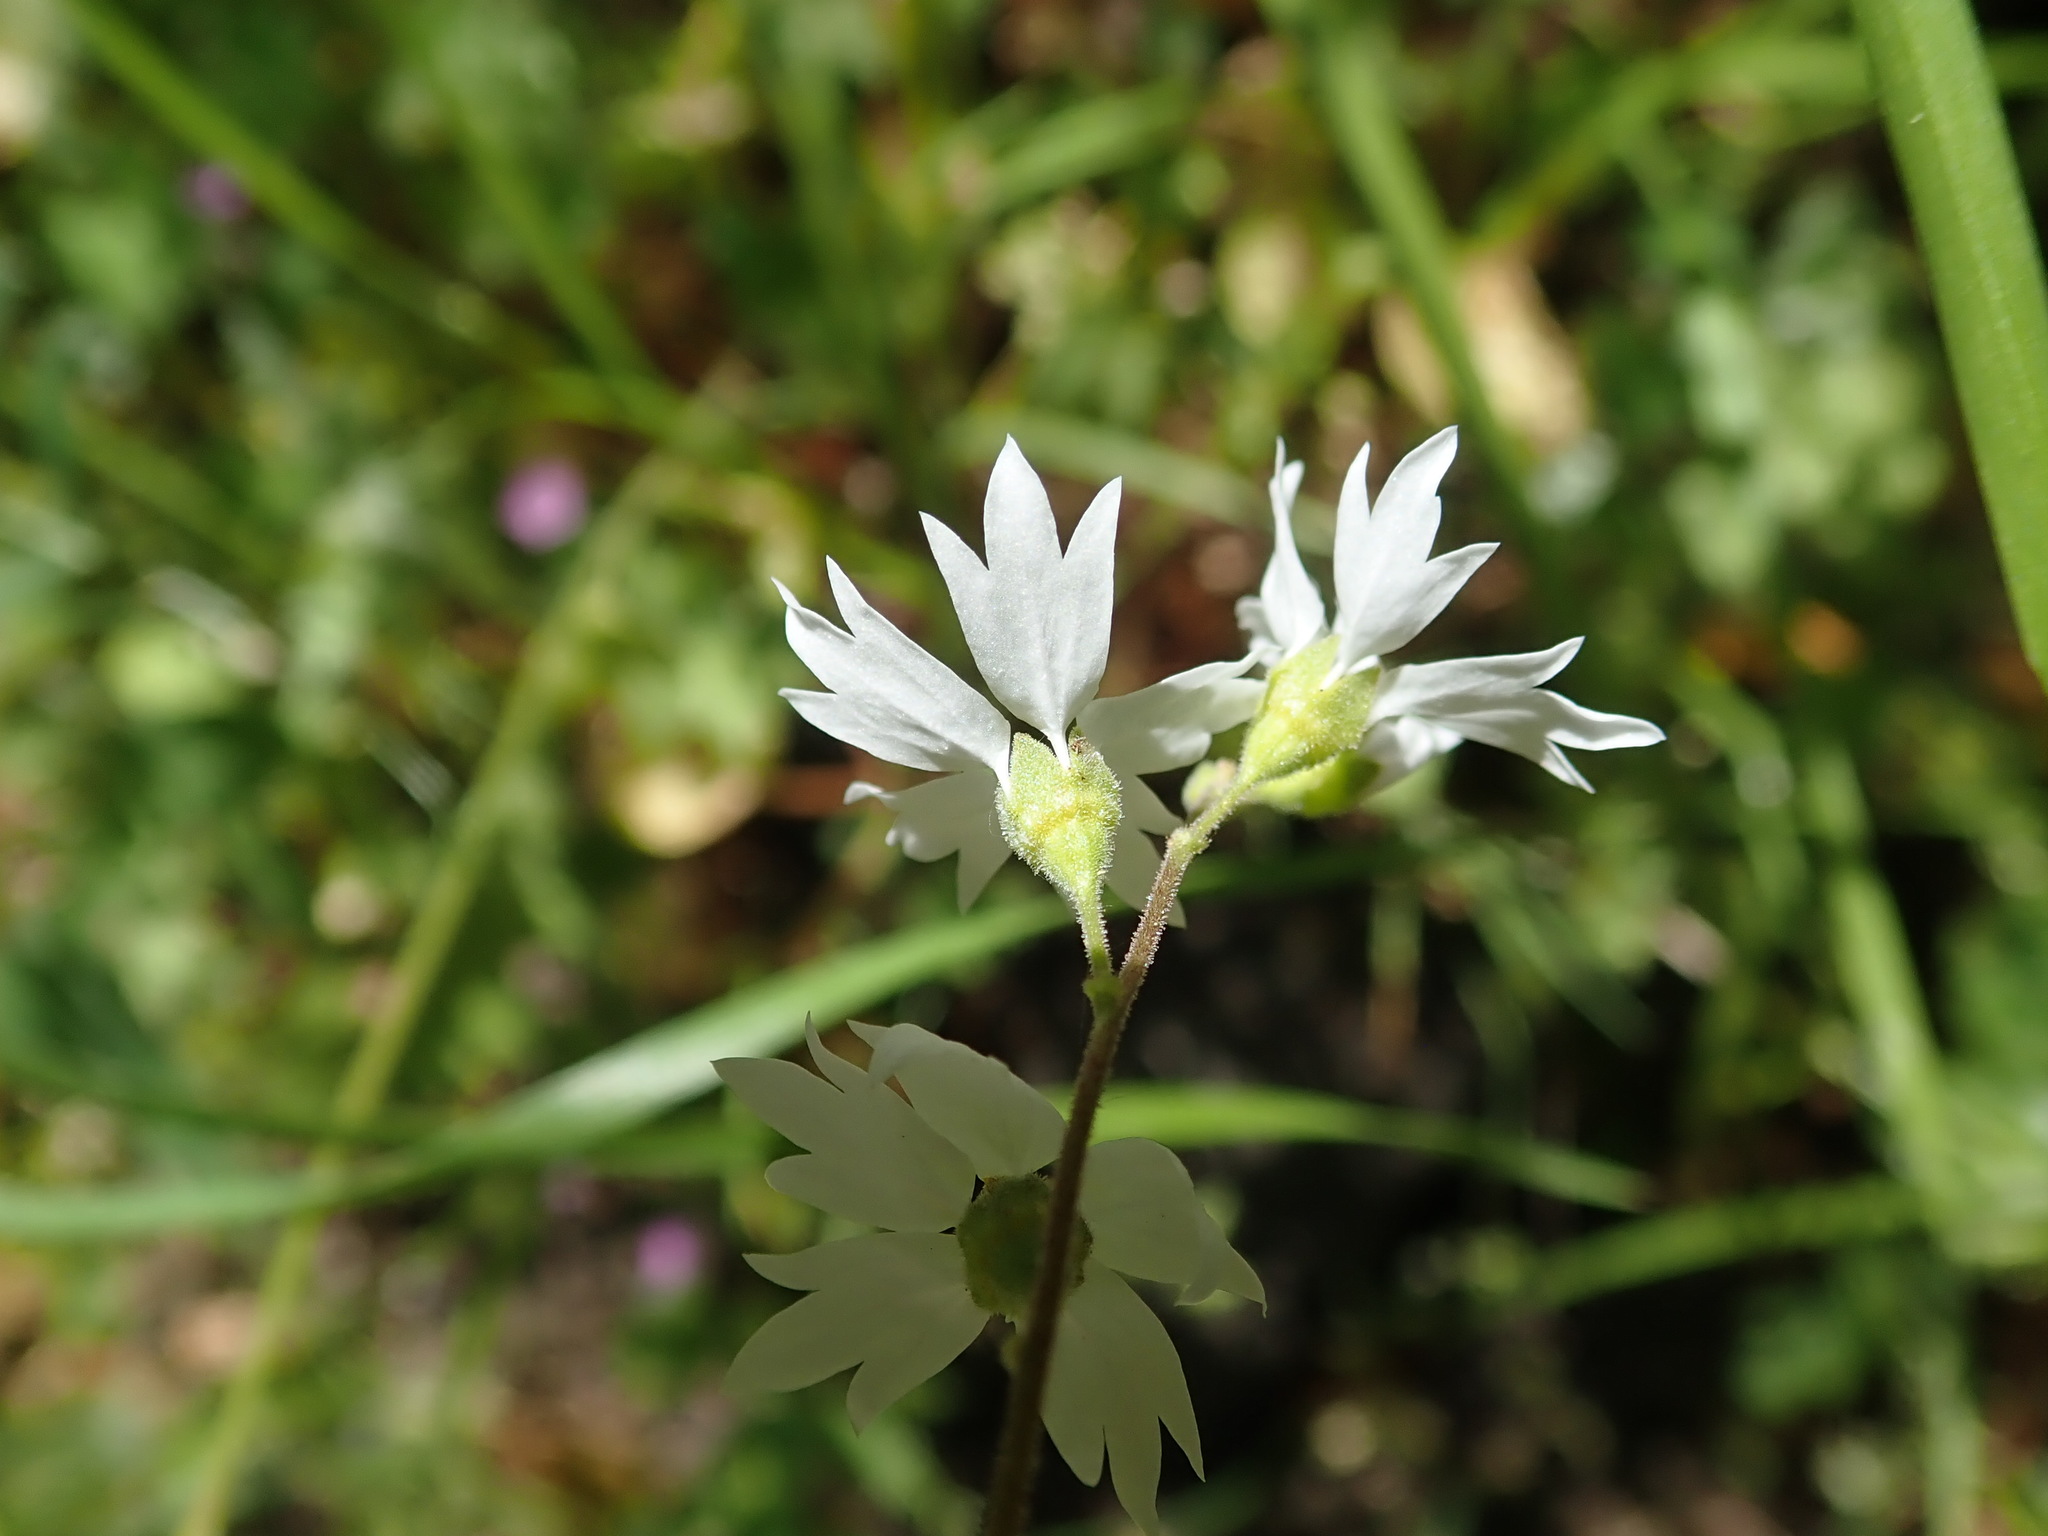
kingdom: Plantae
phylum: Tracheophyta
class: Magnoliopsida
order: Saxifragales
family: Saxifragaceae
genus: Lithophragma
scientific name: Lithophragma affine
